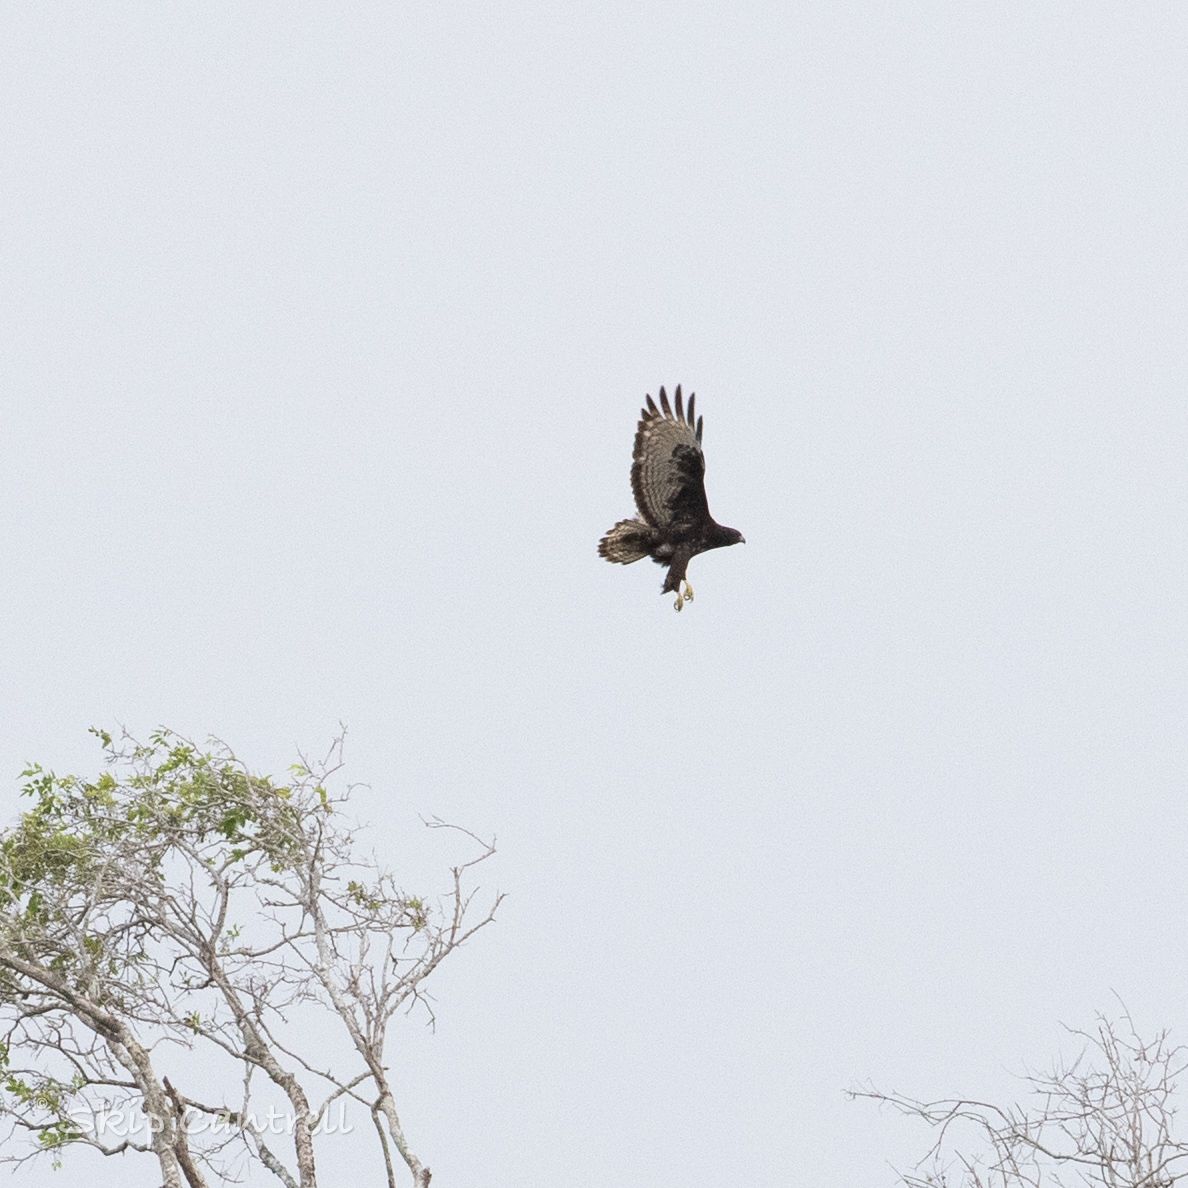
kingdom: Animalia
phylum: Chordata
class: Aves
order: Accipitriformes
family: Accipitridae
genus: Buteo
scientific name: Buteo jamaicensis
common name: Red-tailed hawk
